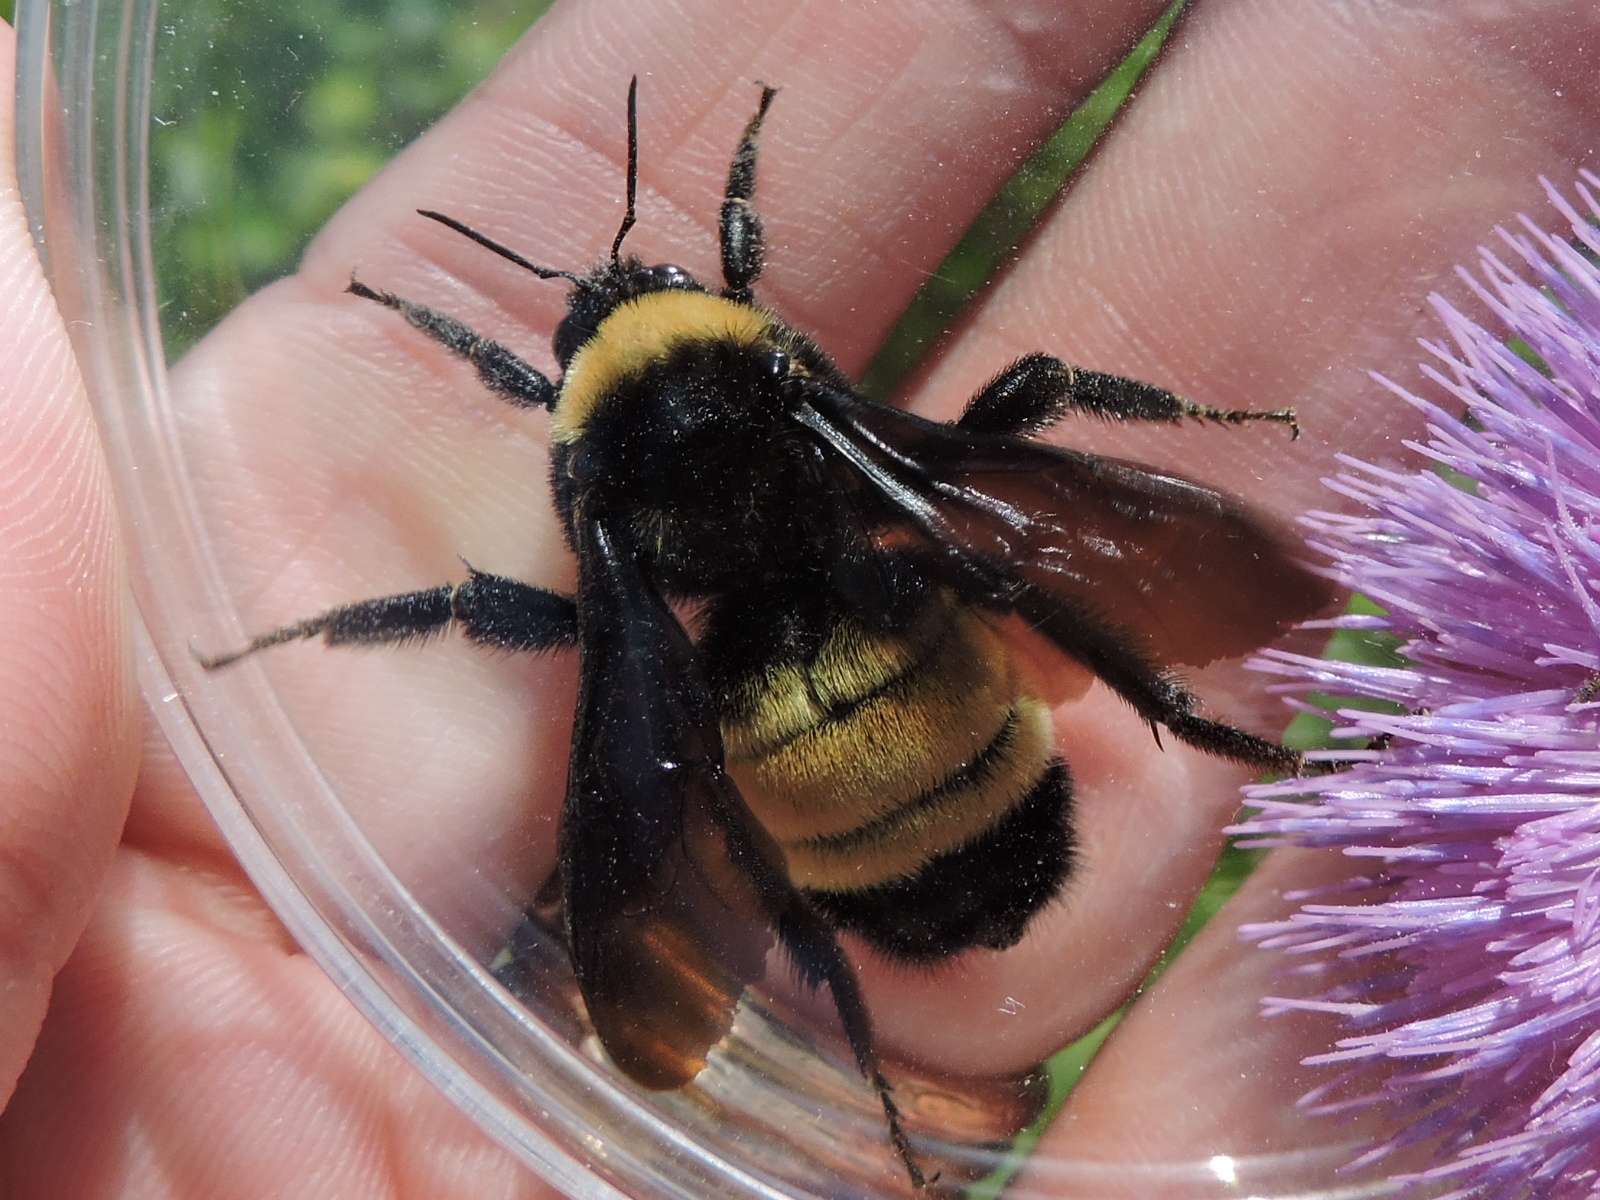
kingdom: Animalia
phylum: Arthropoda
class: Insecta
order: Hymenoptera
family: Apidae
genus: Bombus
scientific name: Bombus pensylvanicus
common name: Bumble bee
